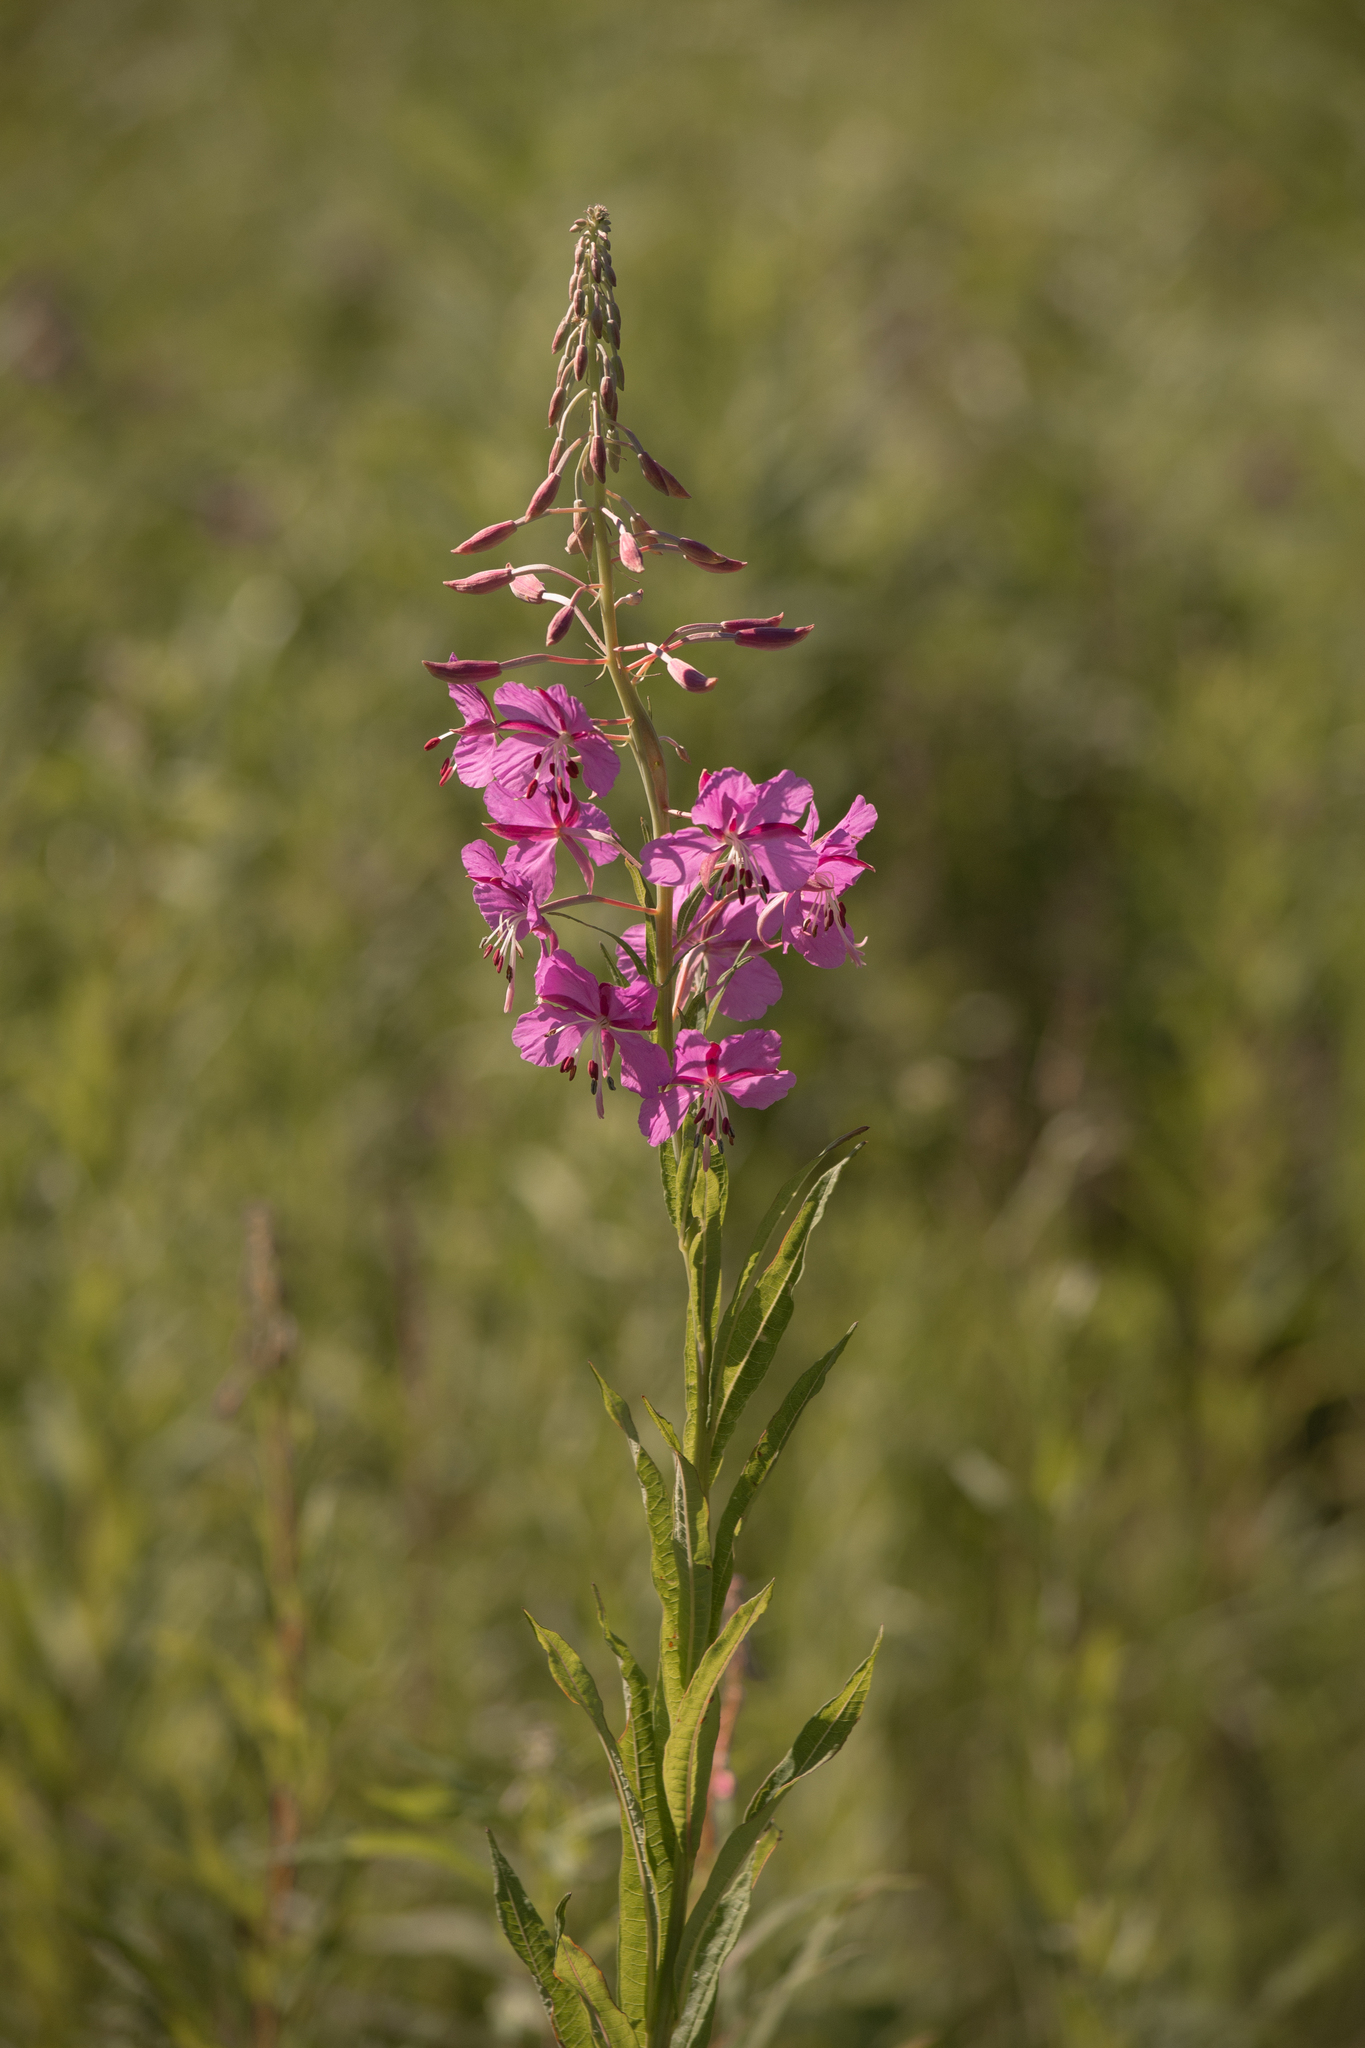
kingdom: Plantae
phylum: Tracheophyta
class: Magnoliopsida
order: Myrtales
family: Onagraceae
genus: Chamaenerion
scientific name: Chamaenerion angustifolium
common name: Fireweed
